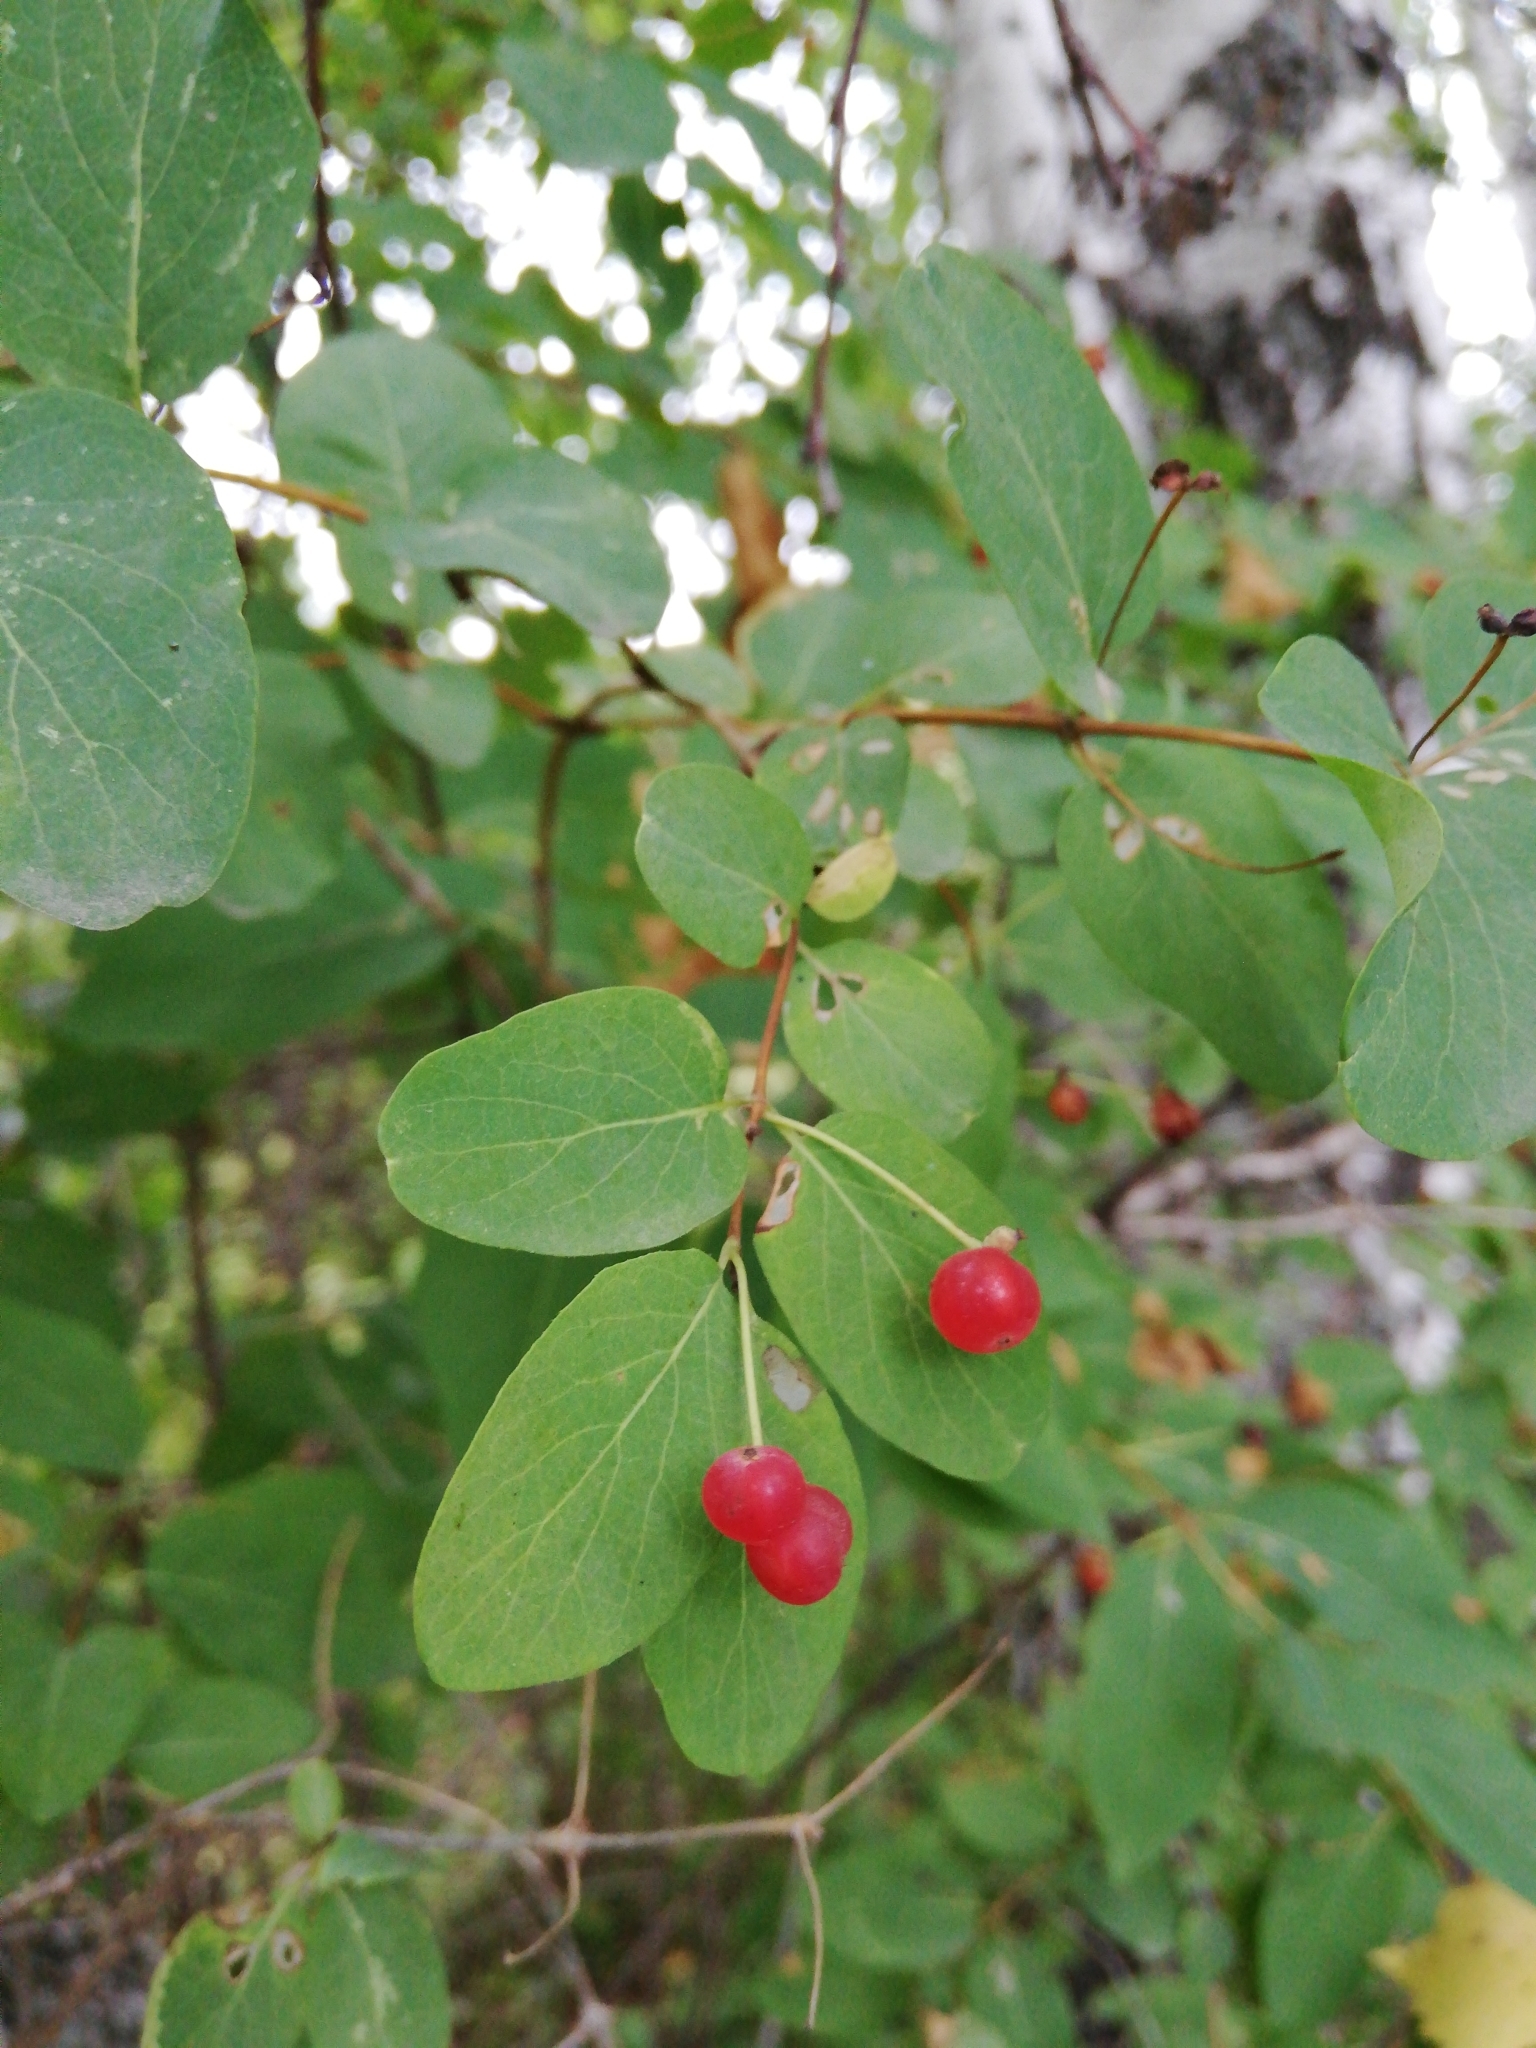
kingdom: Plantae
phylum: Tracheophyta
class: Magnoliopsida
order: Dipsacales
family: Caprifoliaceae
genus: Lonicera
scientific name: Lonicera tatarica
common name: Tatarian honeysuckle
